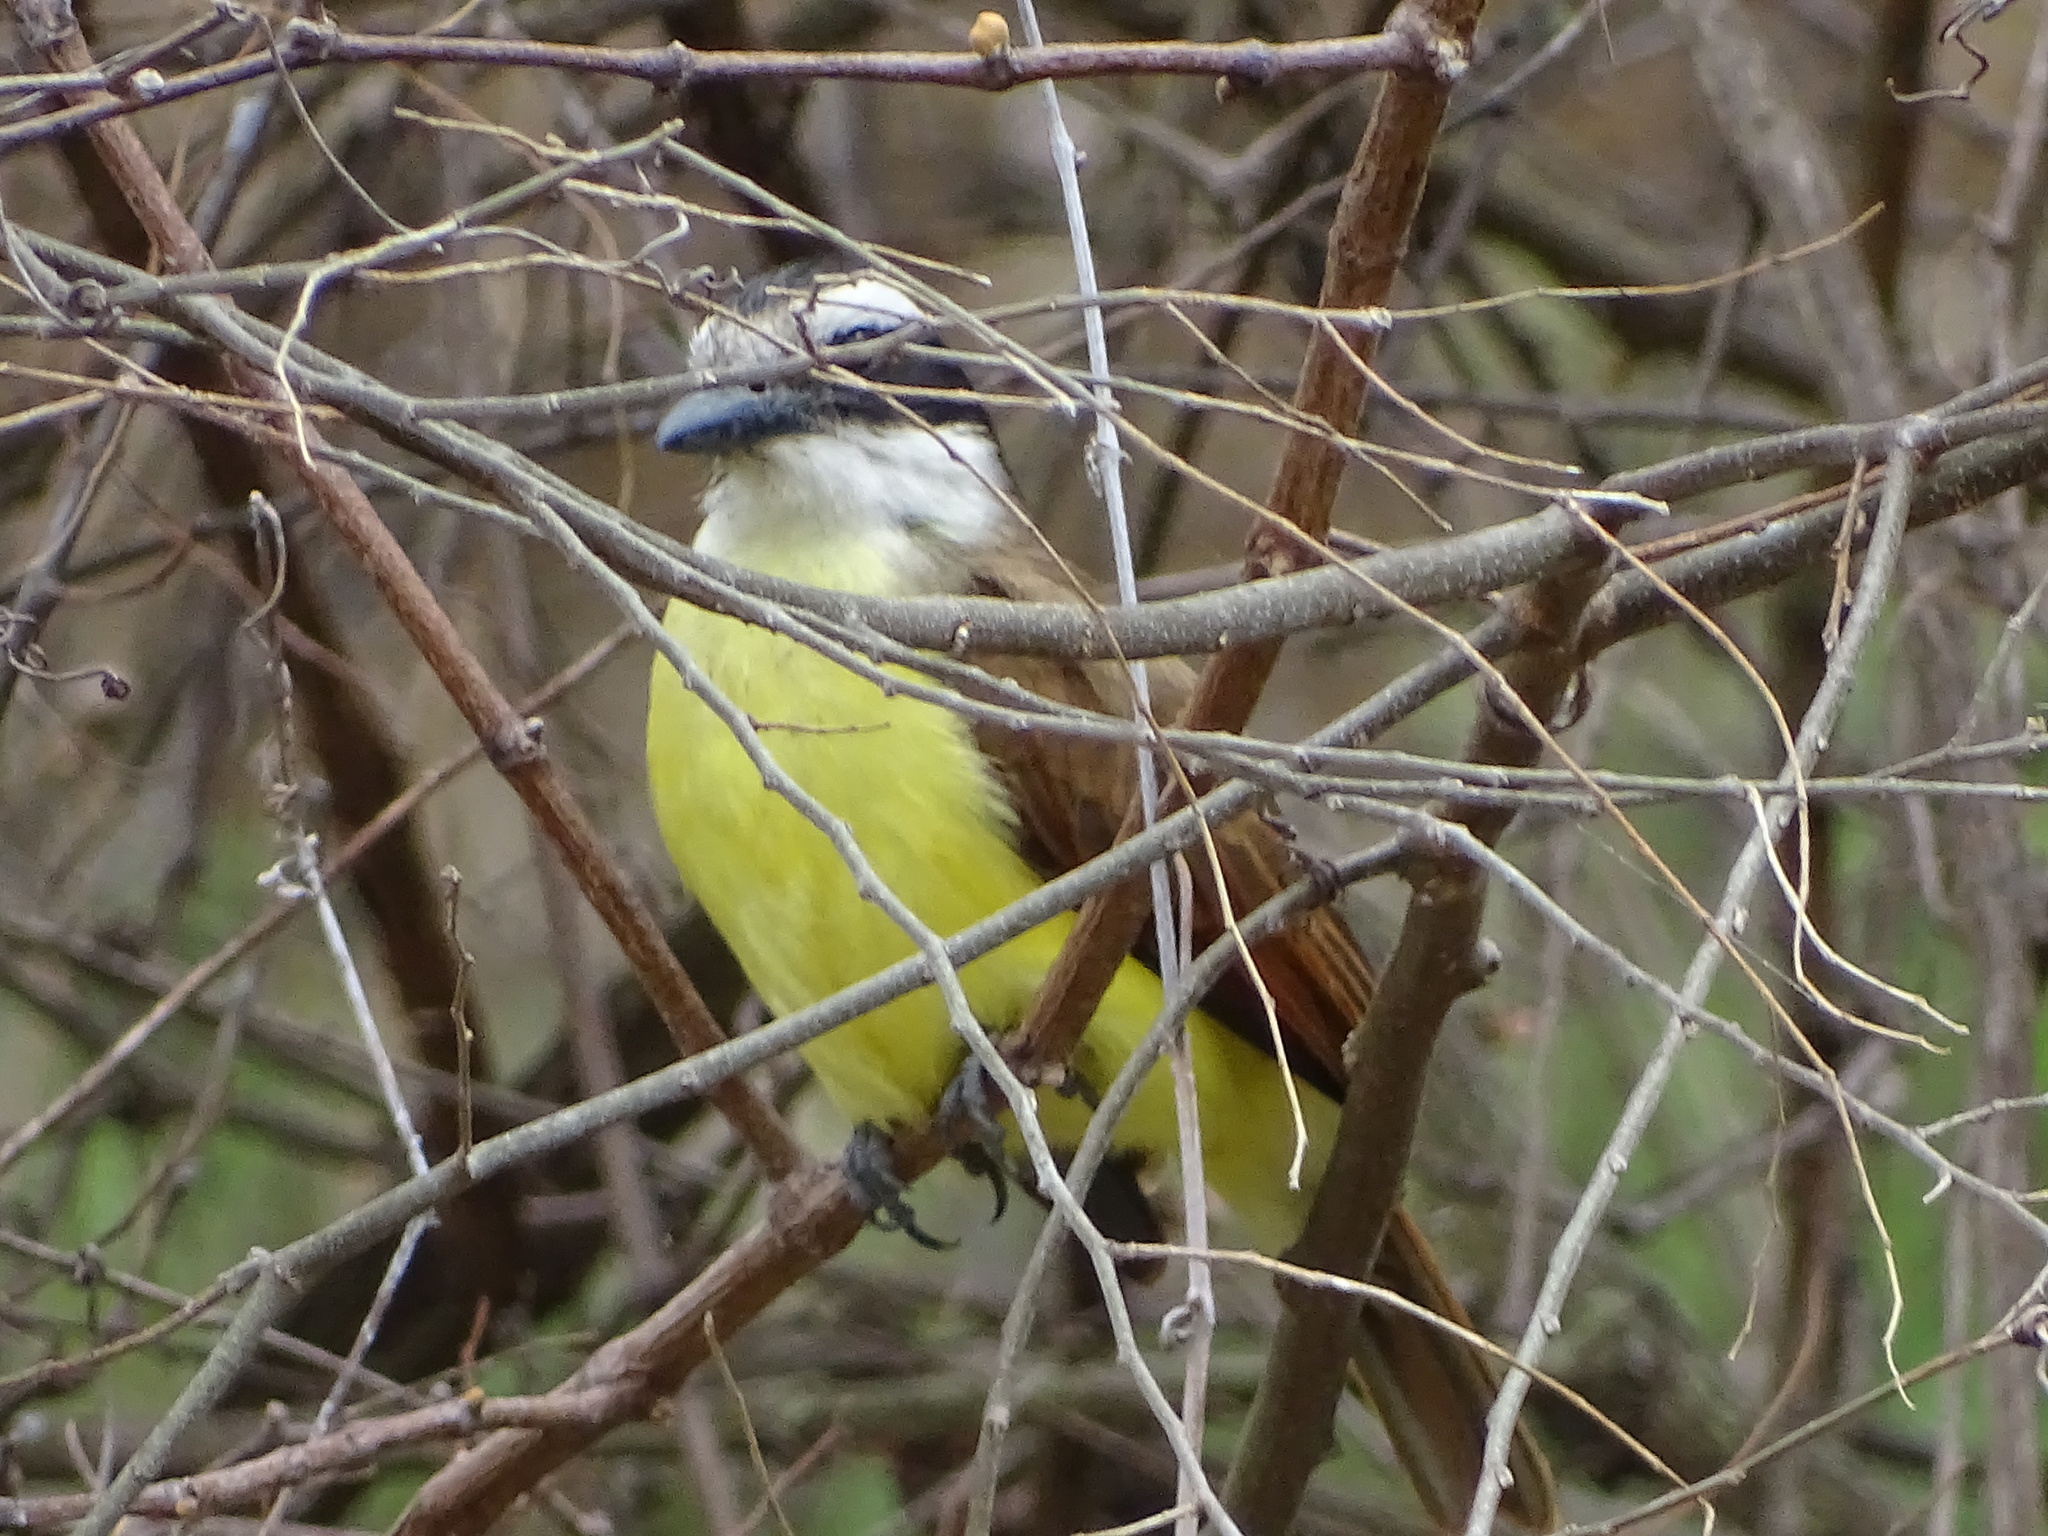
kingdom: Animalia
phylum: Chordata
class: Aves
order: Passeriformes
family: Tyrannidae
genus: Pitangus
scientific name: Pitangus sulphuratus
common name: Great kiskadee
